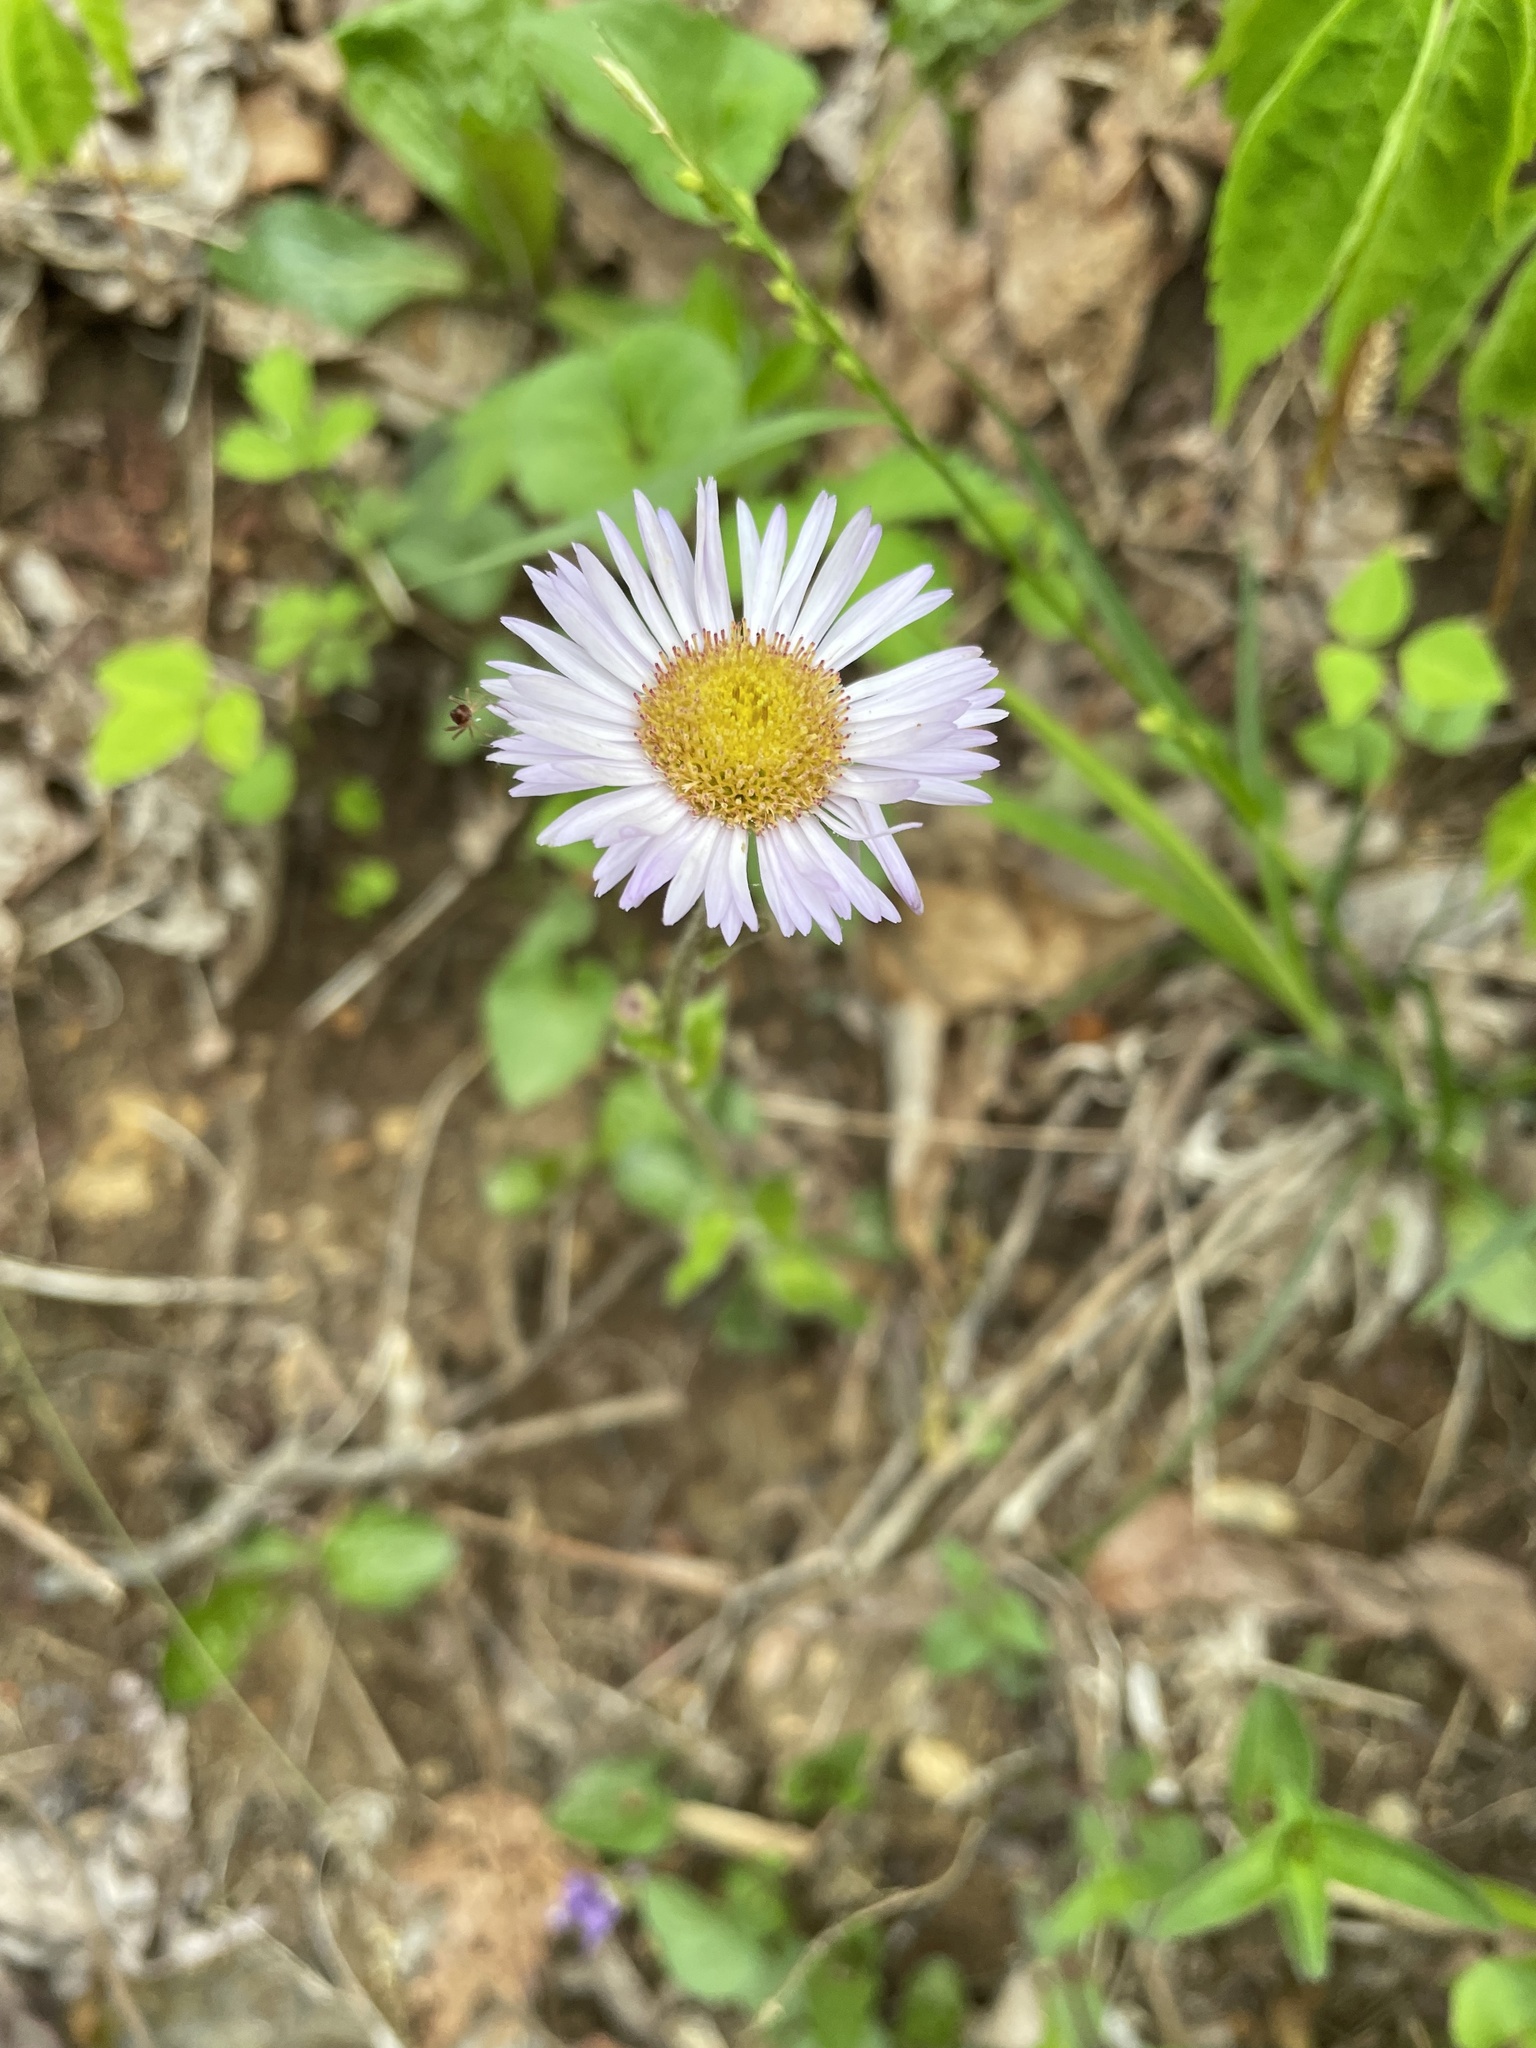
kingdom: Plantae
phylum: Tracheophyta
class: Magnoliopsida
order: Asterales
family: Asteraceae
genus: Erigeron
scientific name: Erigeron pulchellus
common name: Hairy fleabane
